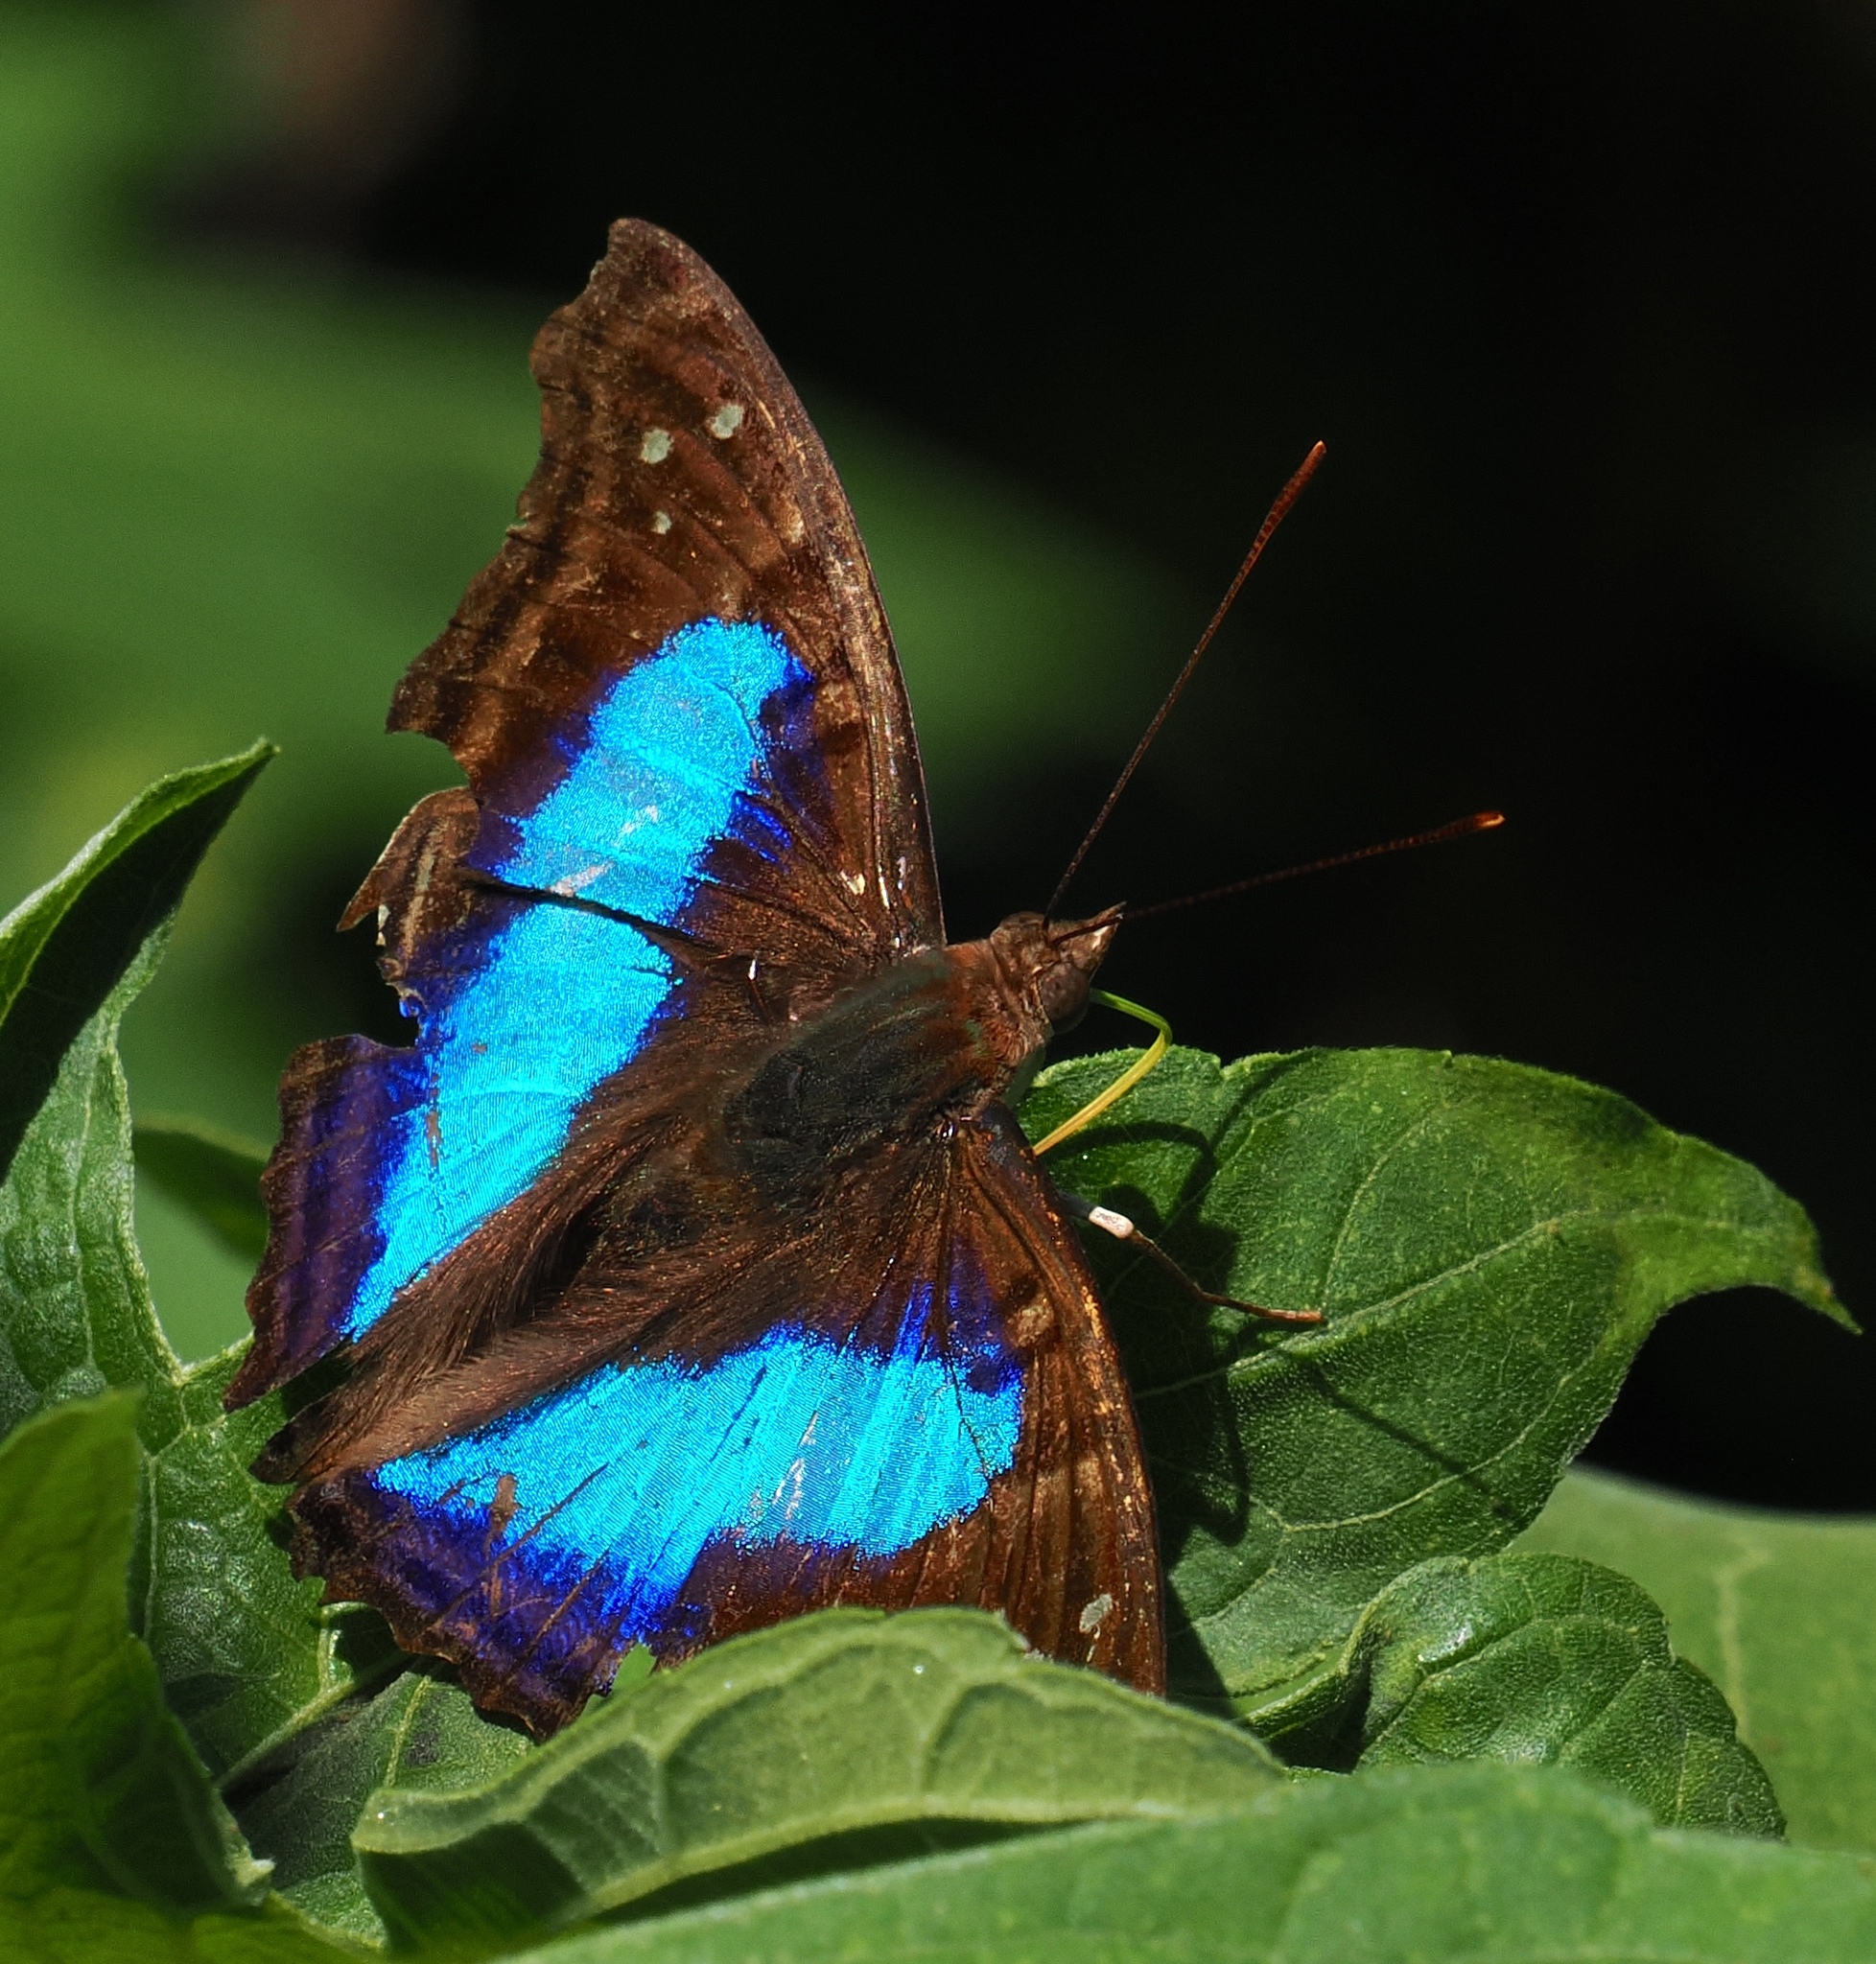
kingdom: Animalia
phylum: Arthropoda
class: Insecta
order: Lepidoptera
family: Nymphalidae
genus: Doxocopa
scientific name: Doxocopa laurentia
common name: Turquoise emperor
